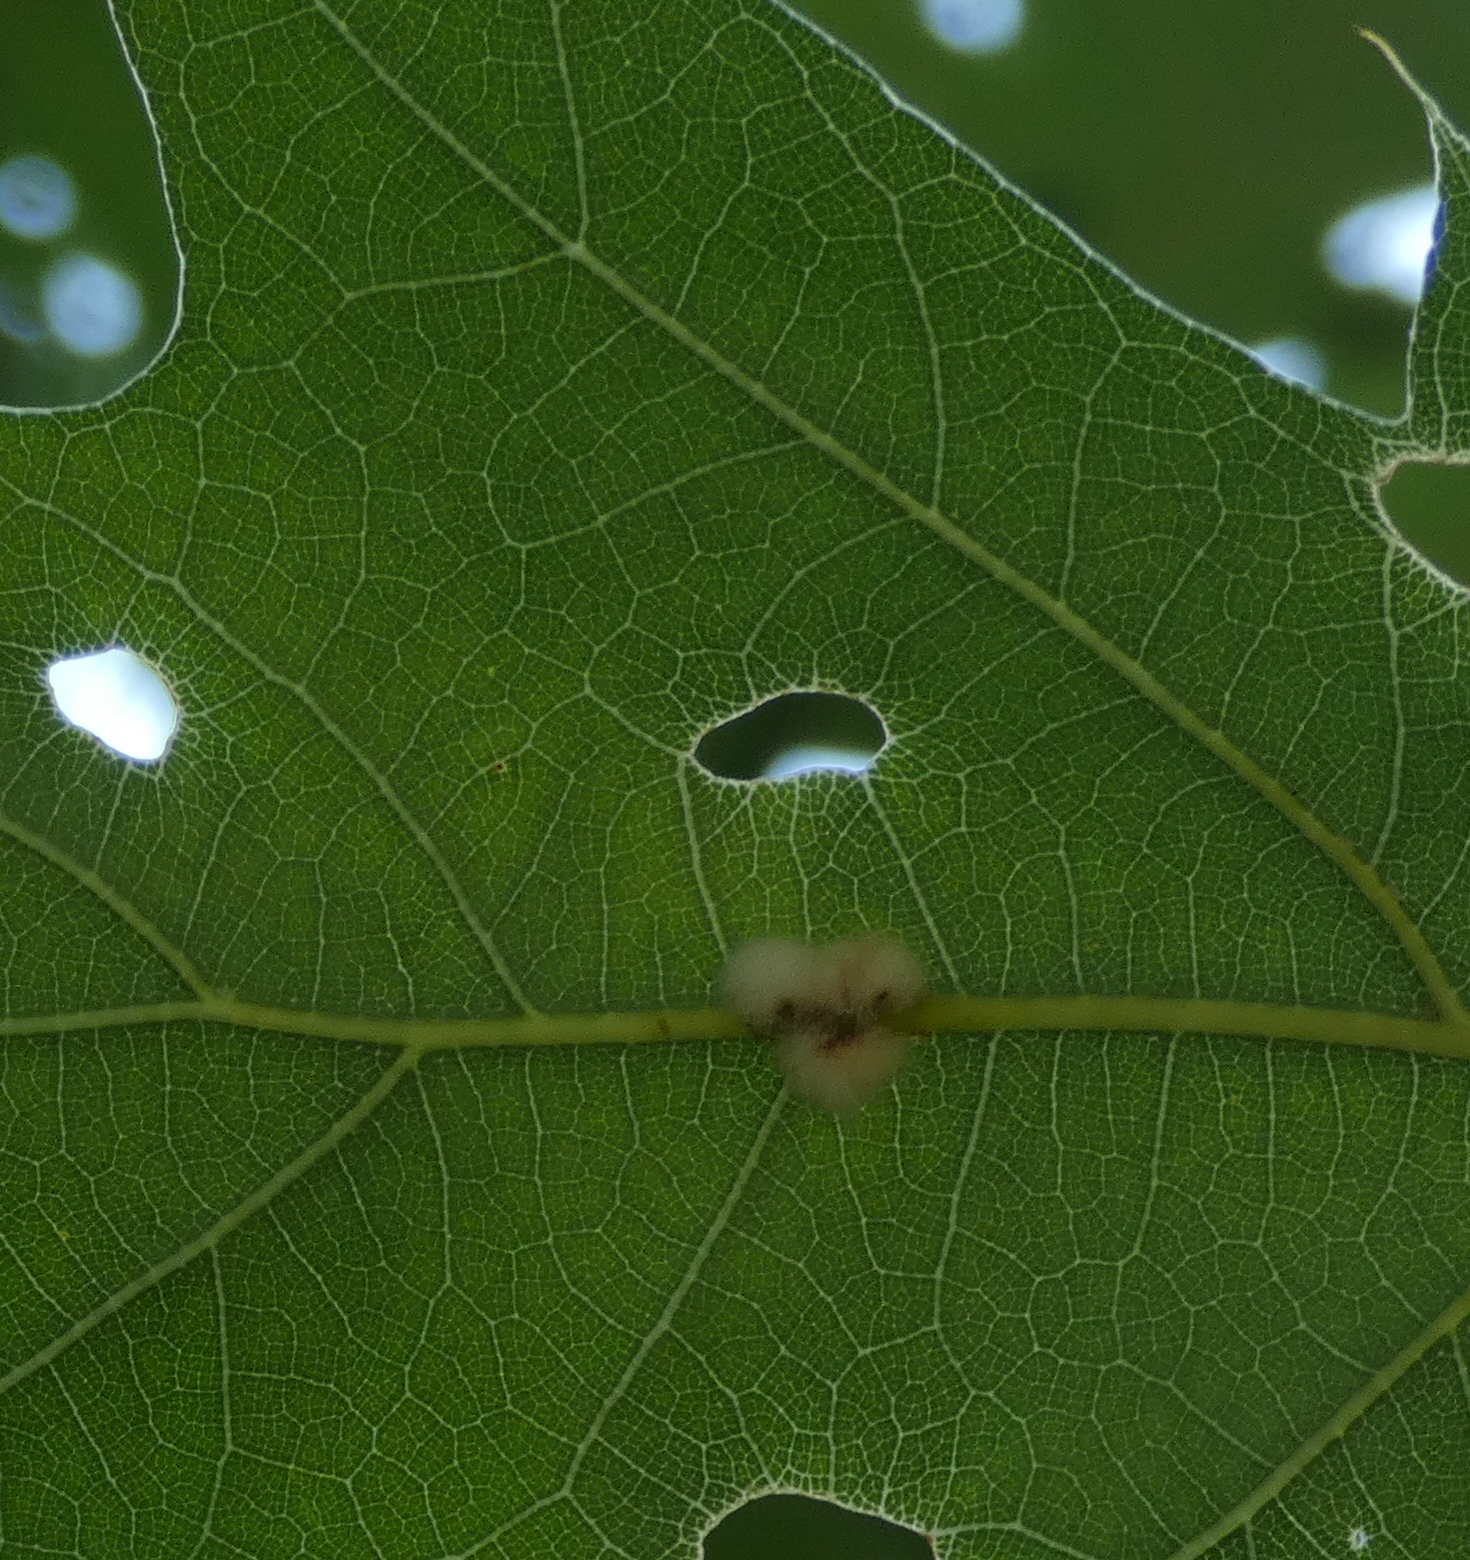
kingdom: Animalia
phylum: Arthropoda
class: Insecta
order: Hymenoptera
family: Cynipidae
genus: Callirhytis
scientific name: Callirhytis
